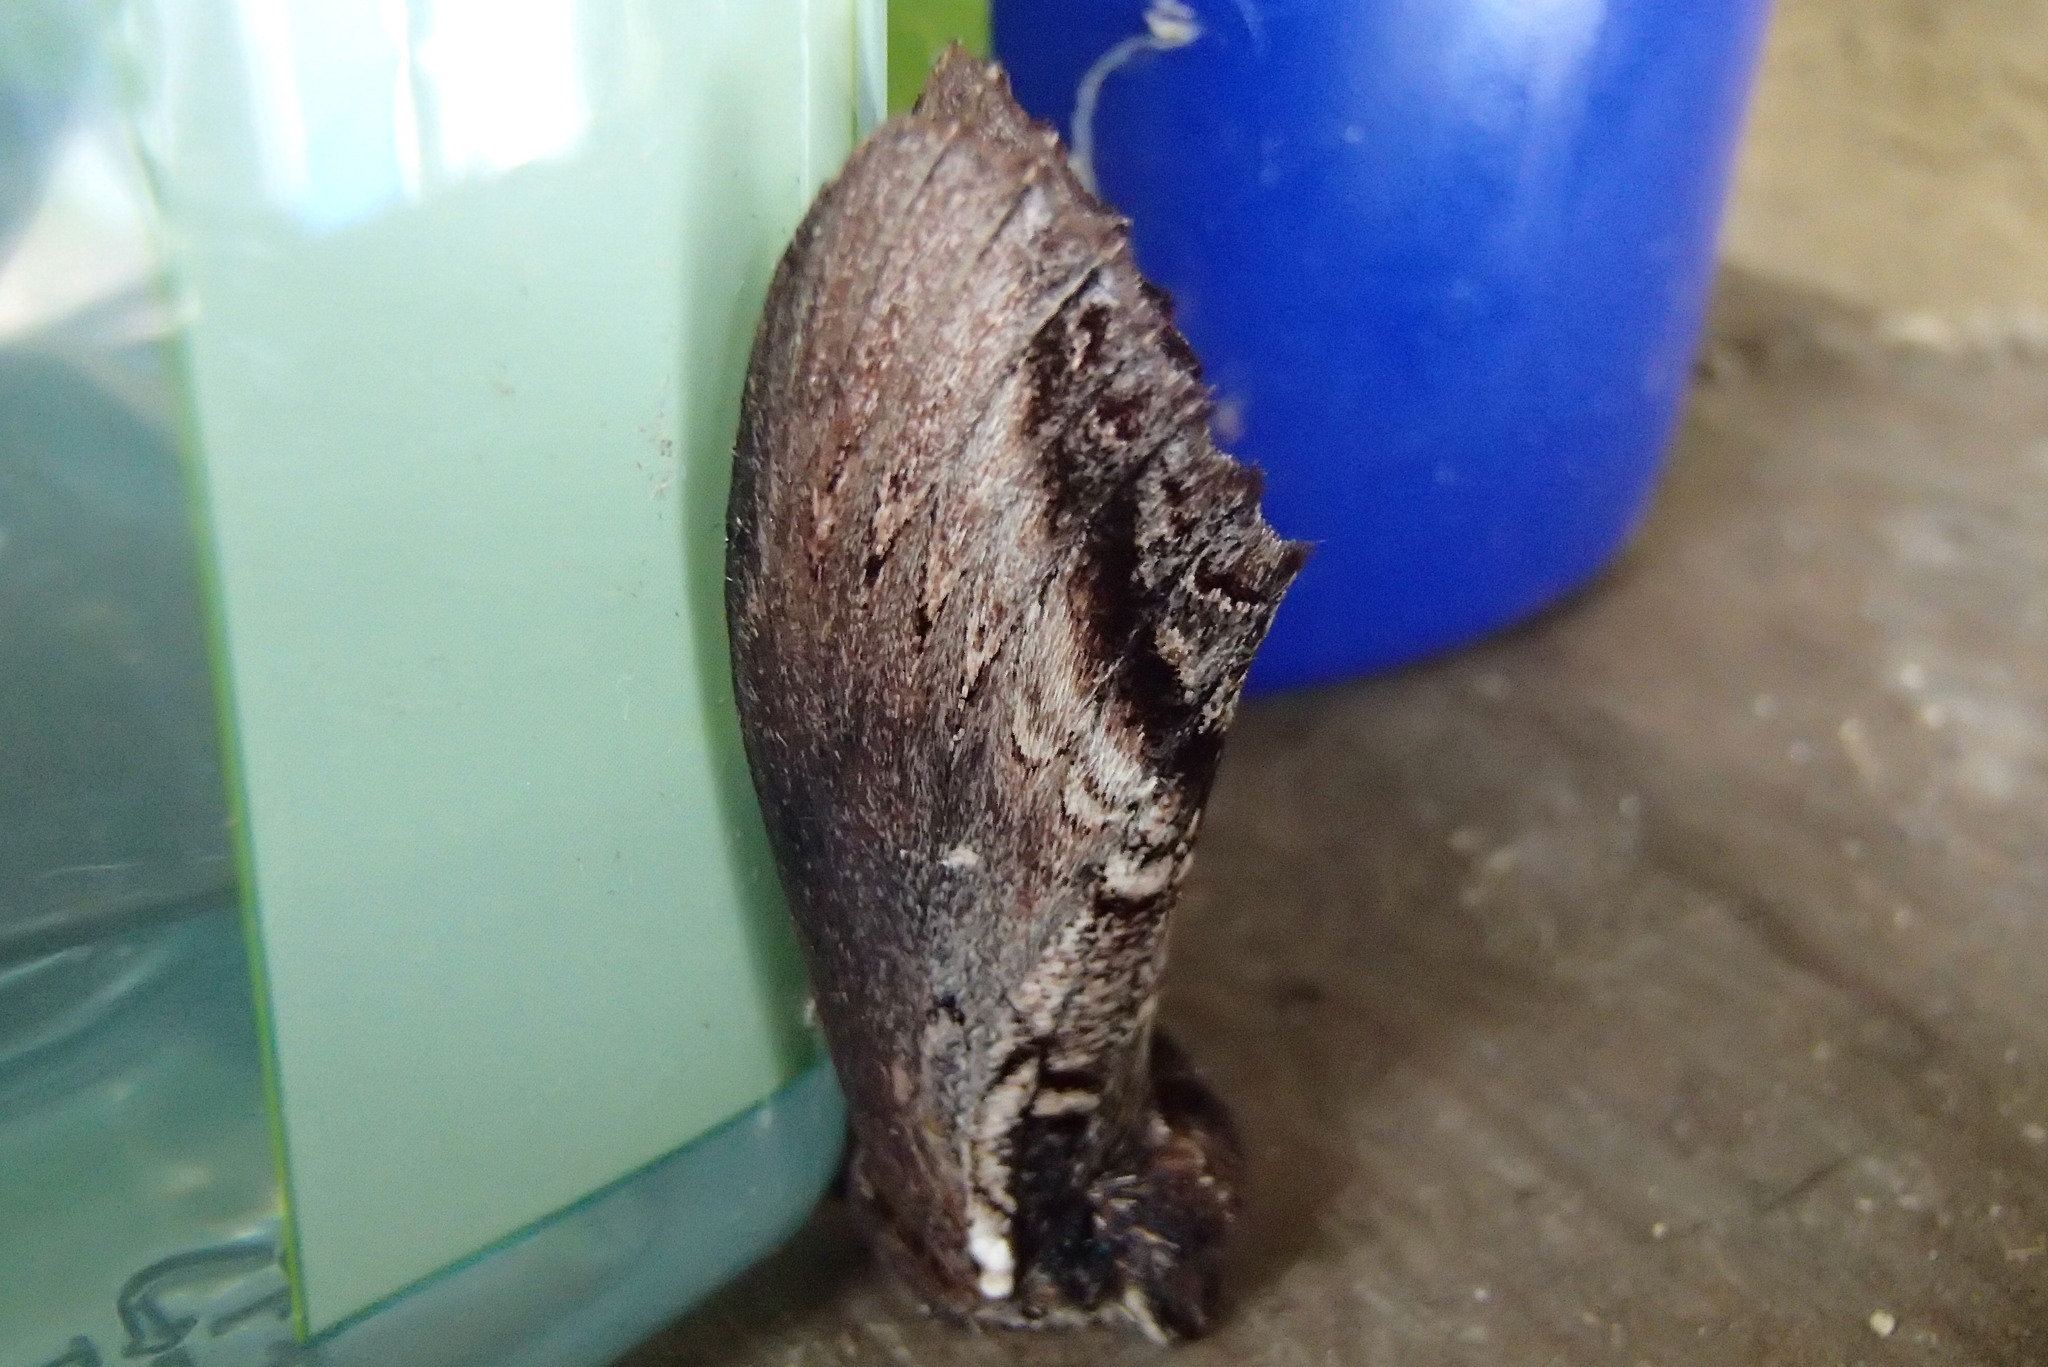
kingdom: Animalia
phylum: Arthropoda
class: Insecta
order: Lepidoptera
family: Notodontidae
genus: Hylaeora
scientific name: Hylaeora eucalypti
